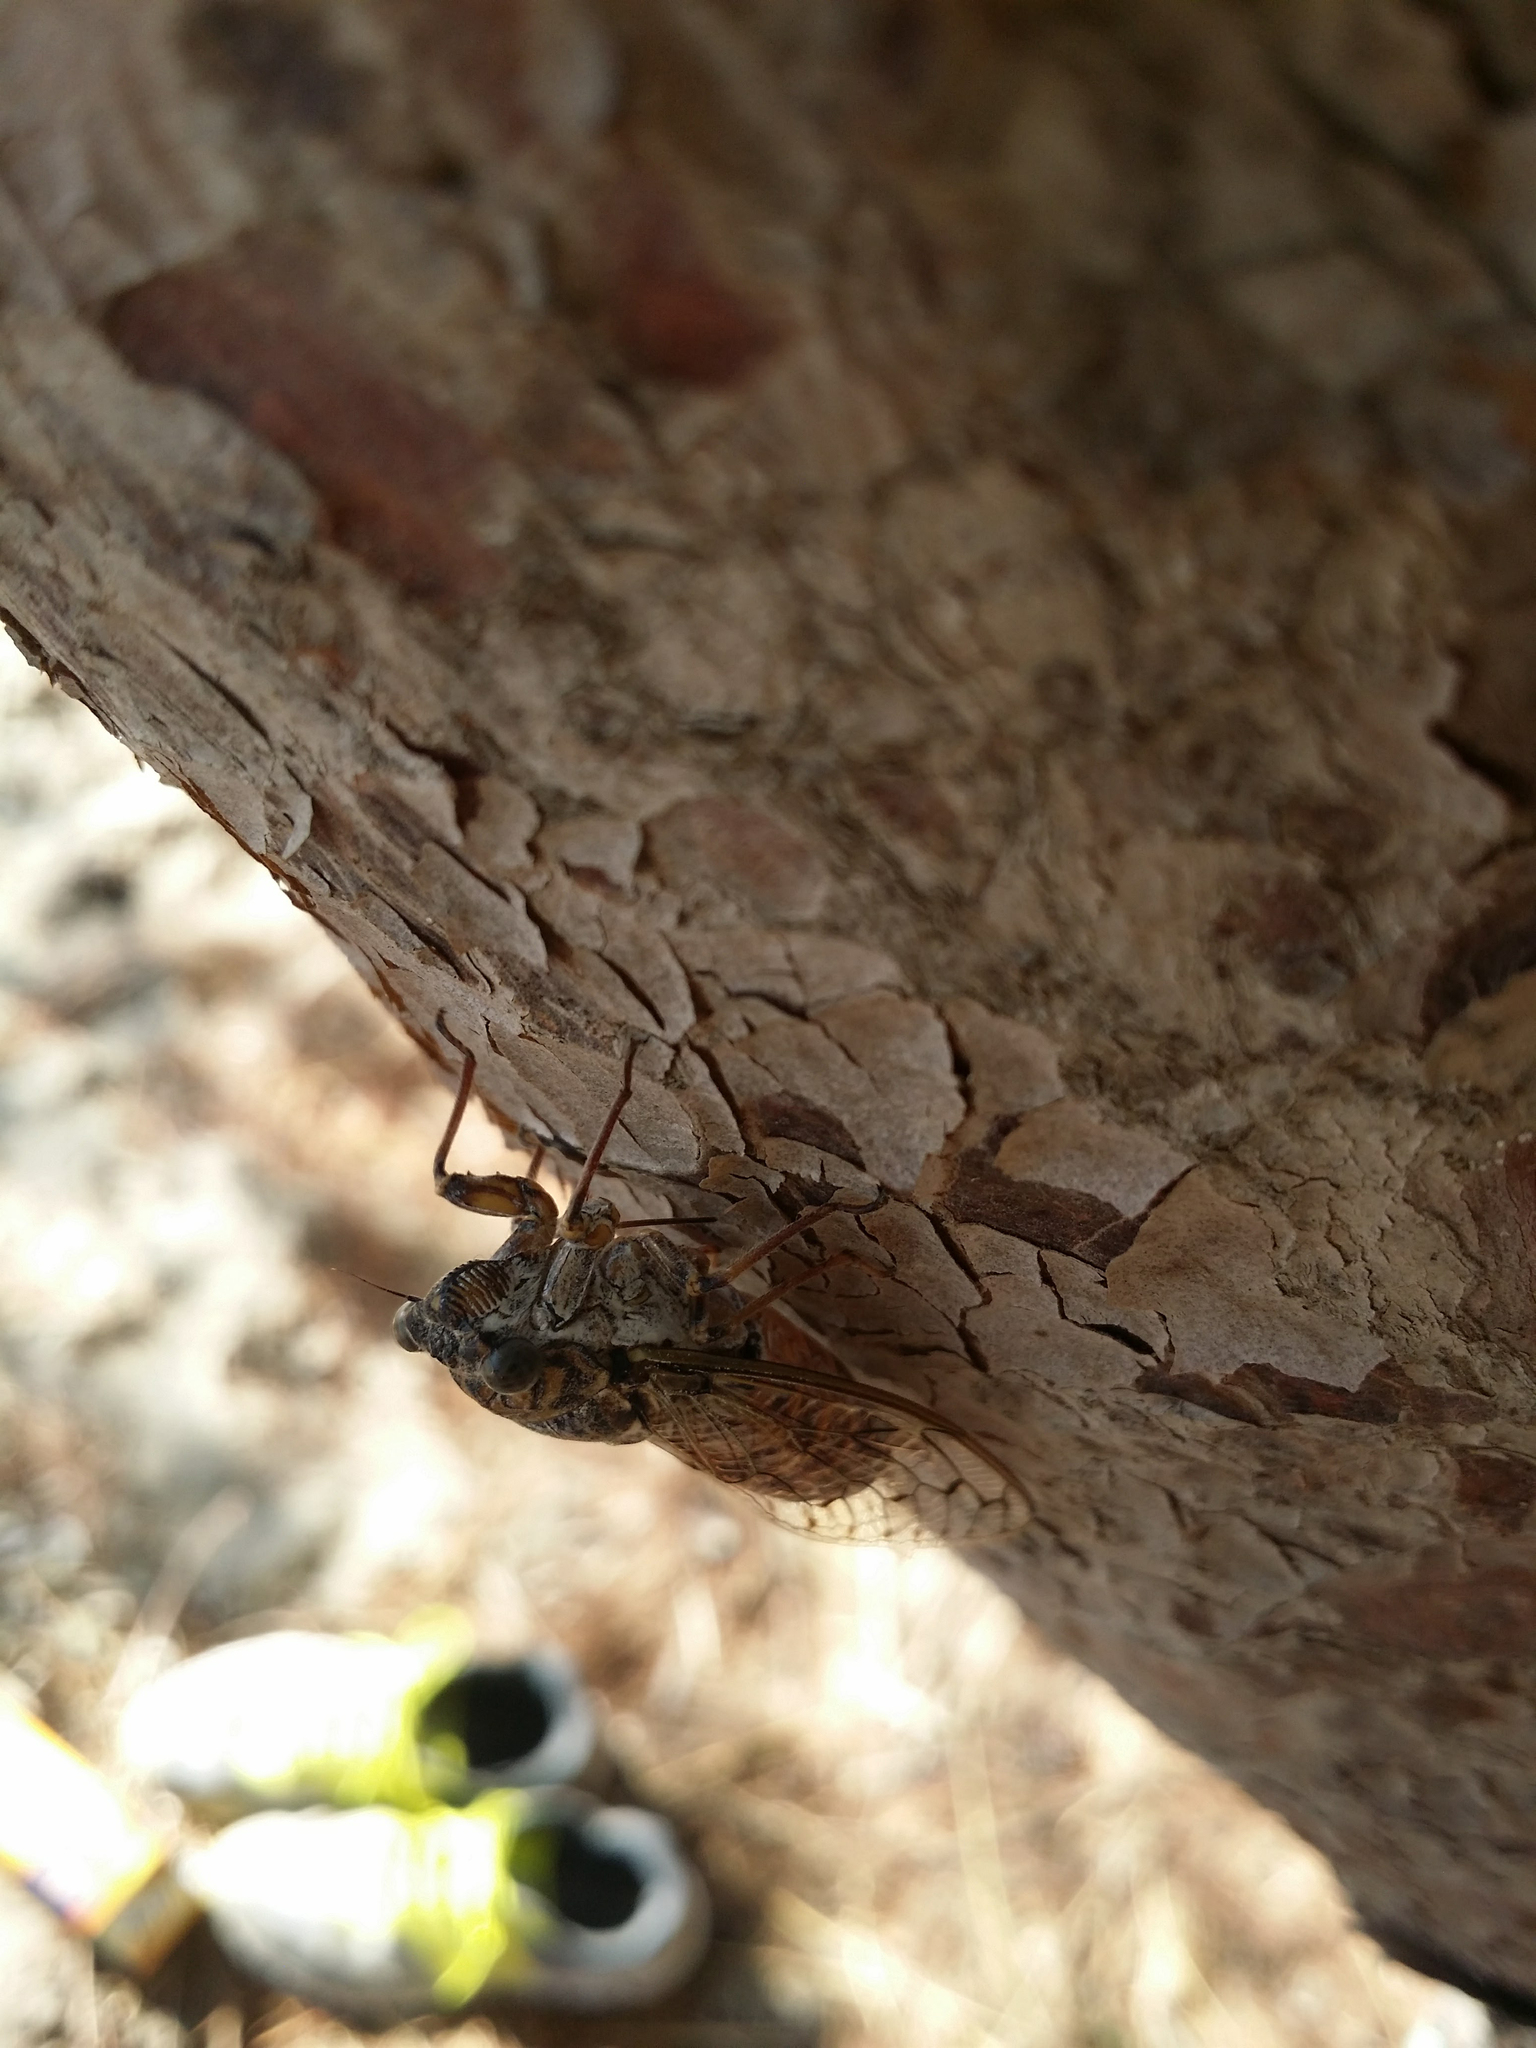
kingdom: Animalia
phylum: Arthropoda
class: Insecta
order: Hemiptera
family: Cicadidae
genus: Cicada
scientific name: Cicada orni
